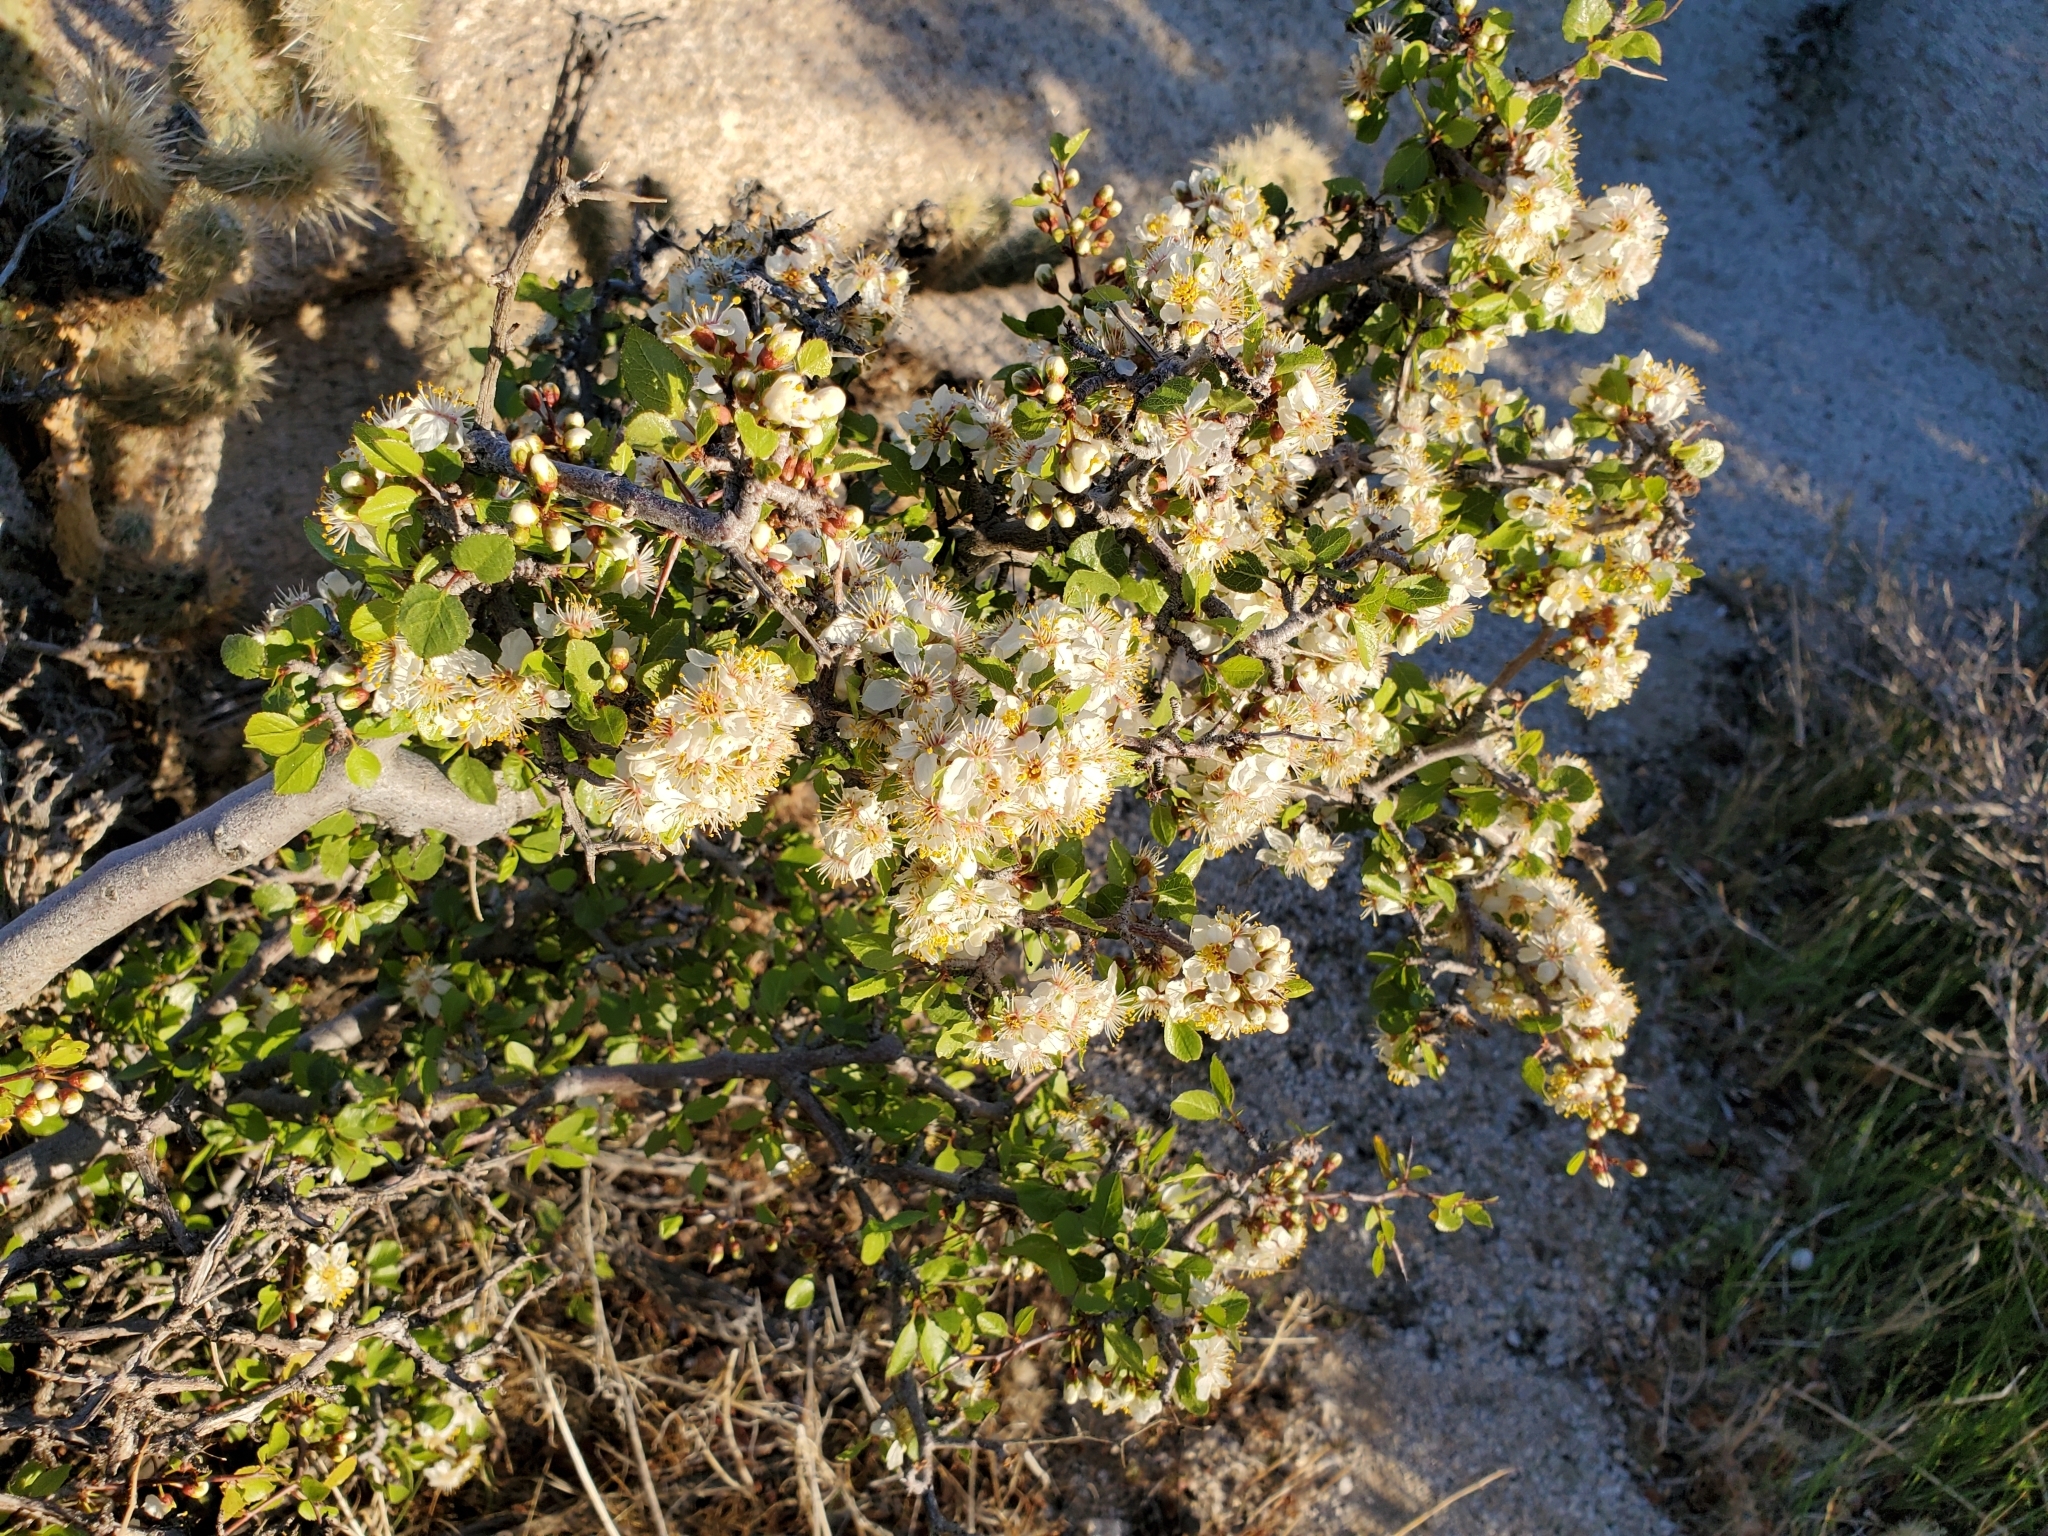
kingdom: Plantae
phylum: Tracheophyta
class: Magnoliopsida
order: Rosales
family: Rosaceae
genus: Prunus
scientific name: Prunus fremontii
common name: Desert apricot
